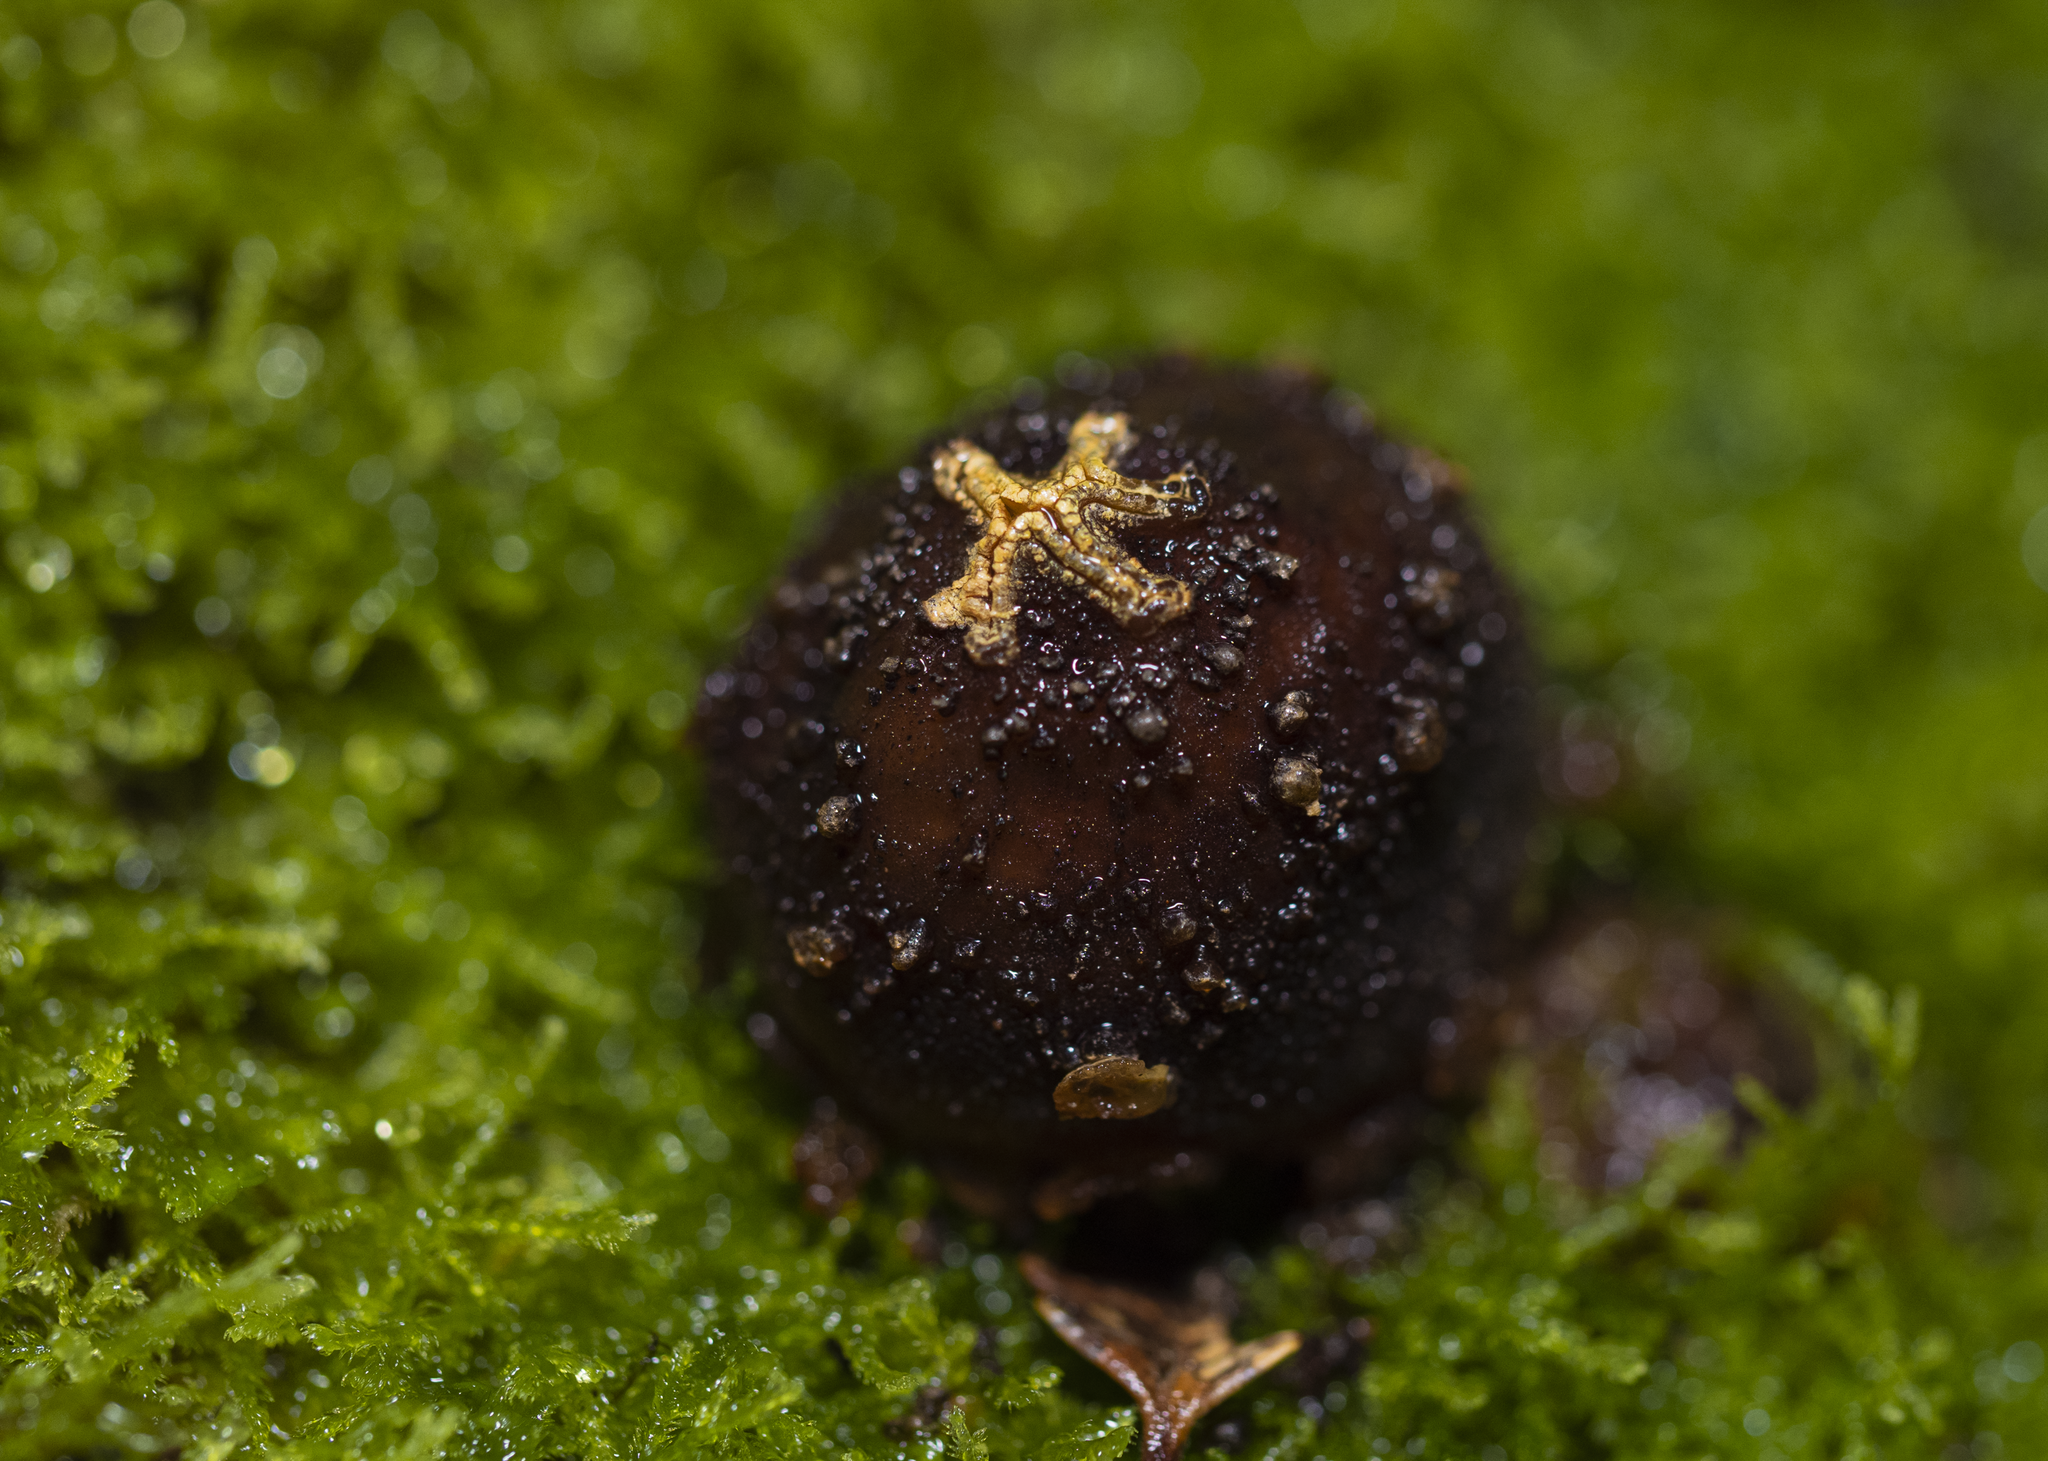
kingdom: Fungi
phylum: Basidiomycota
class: Agaricomycetes
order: Boletales
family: Calostomataceae
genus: Calostoma
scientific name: Calostoma rodwayi
